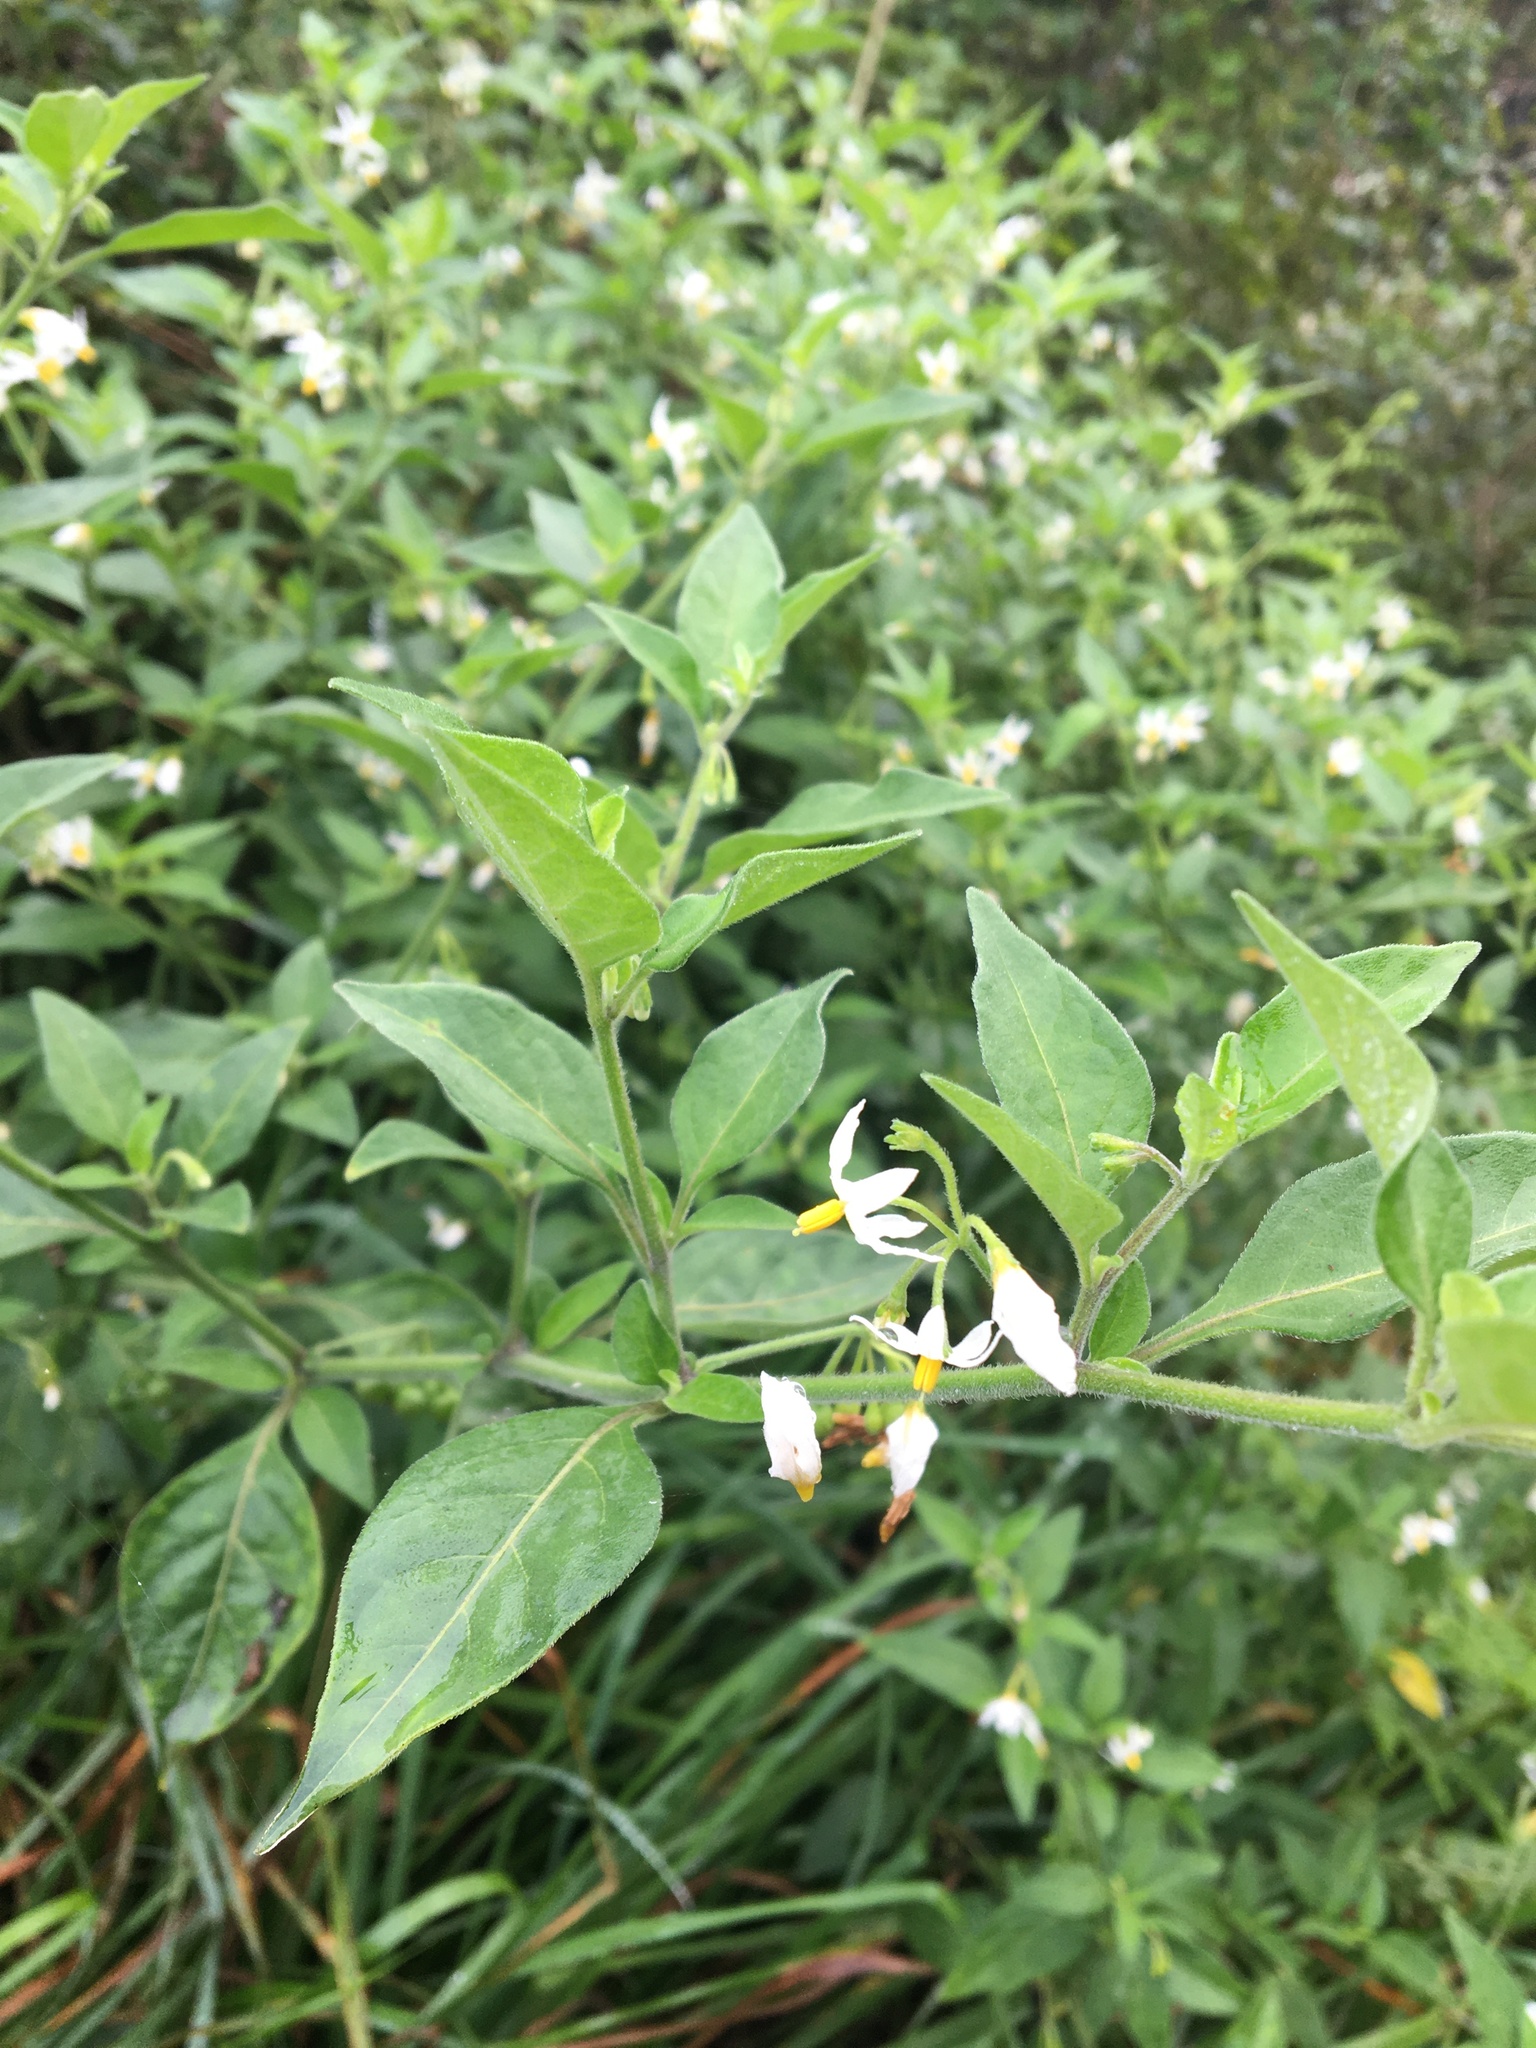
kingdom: Plantae
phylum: Tracheophyta
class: Magnoliopsida
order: Solanales
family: Solanaceae
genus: Solanum
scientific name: Solanum chenopodioides
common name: Tall nightshade
